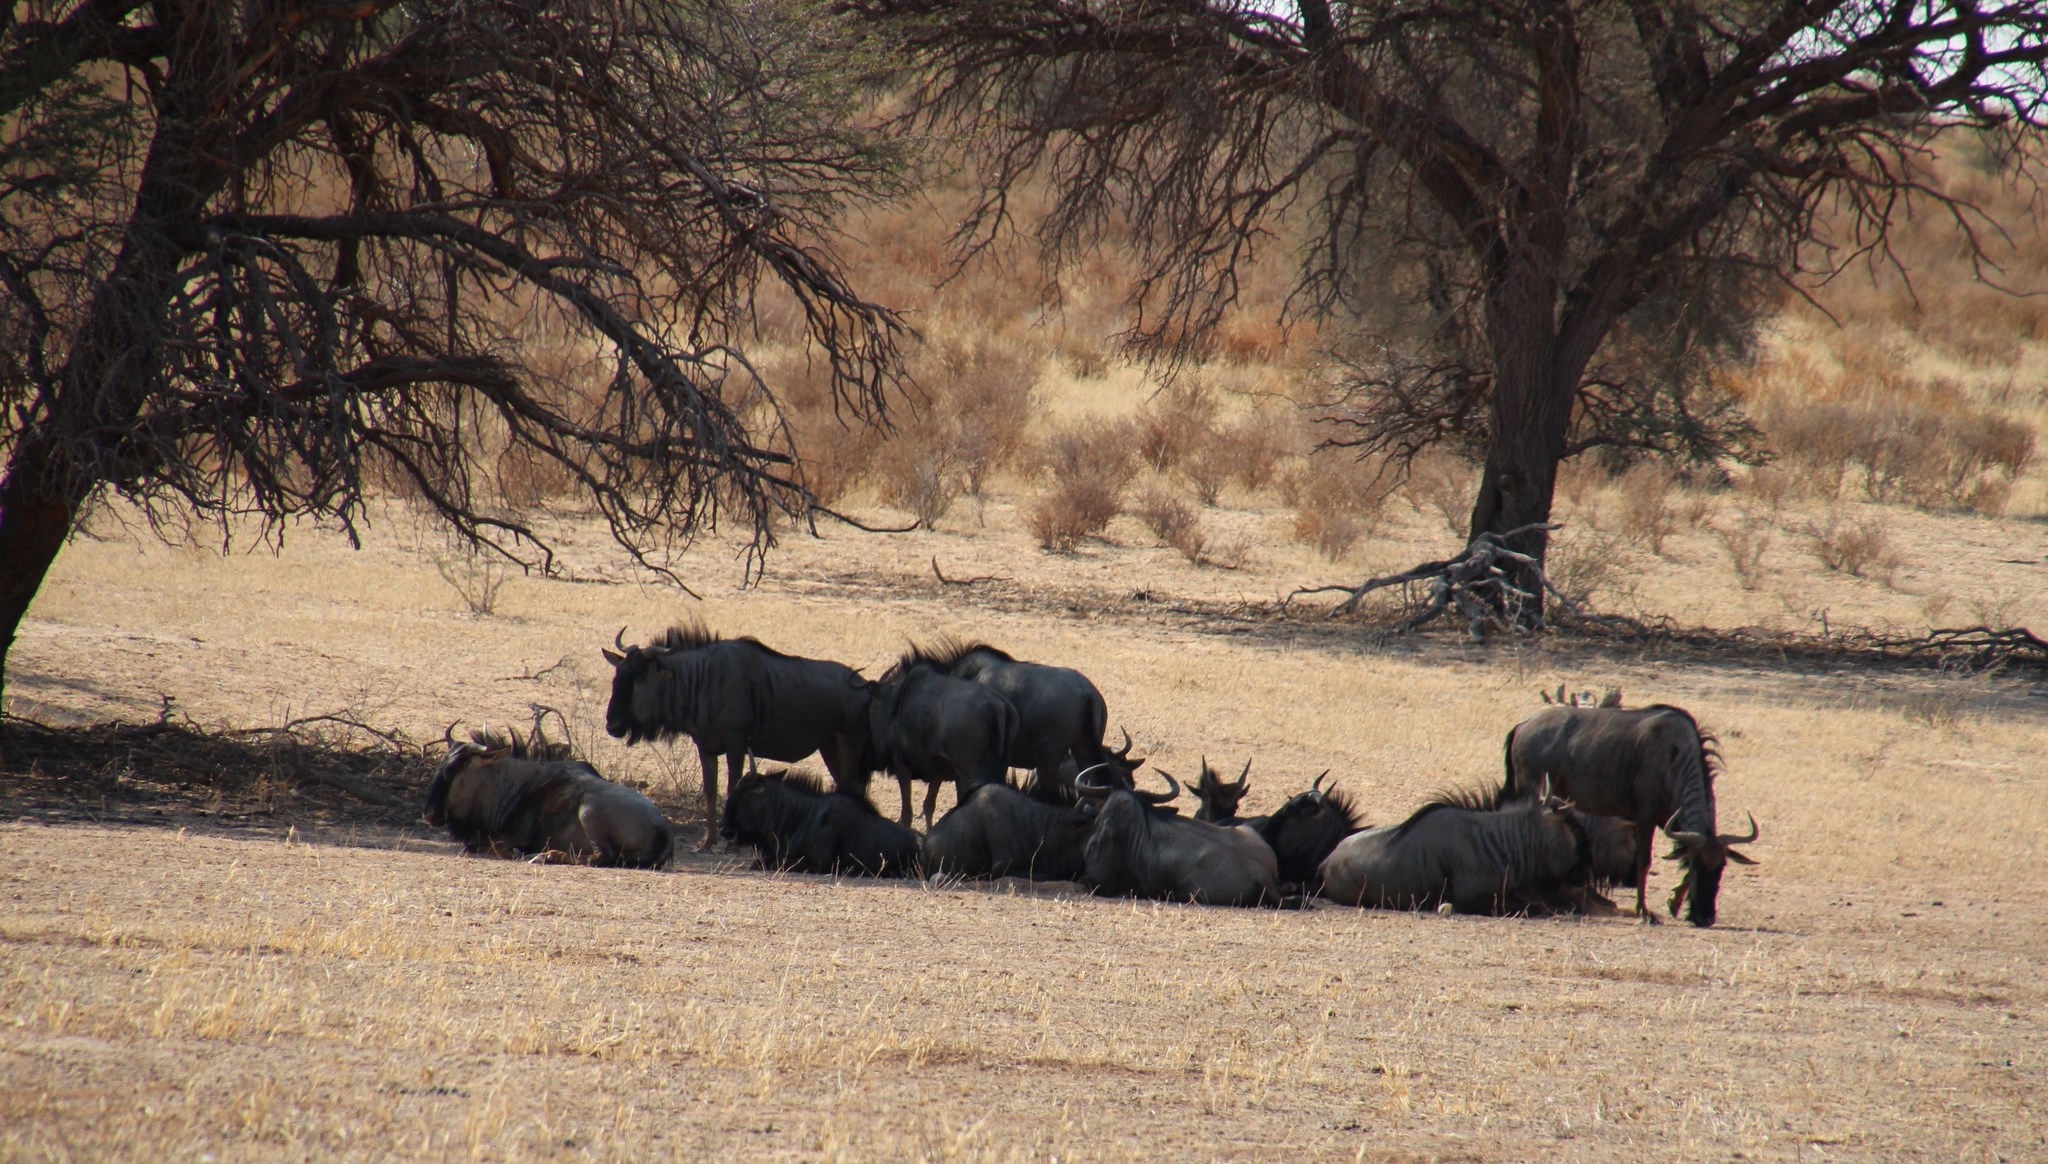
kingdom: Animalia
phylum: Chordata
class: Mammalia
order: Artiodactyla
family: Bovidae
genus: Connochaetes
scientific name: Connochaetes taurinus
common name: Blue wildebeest
